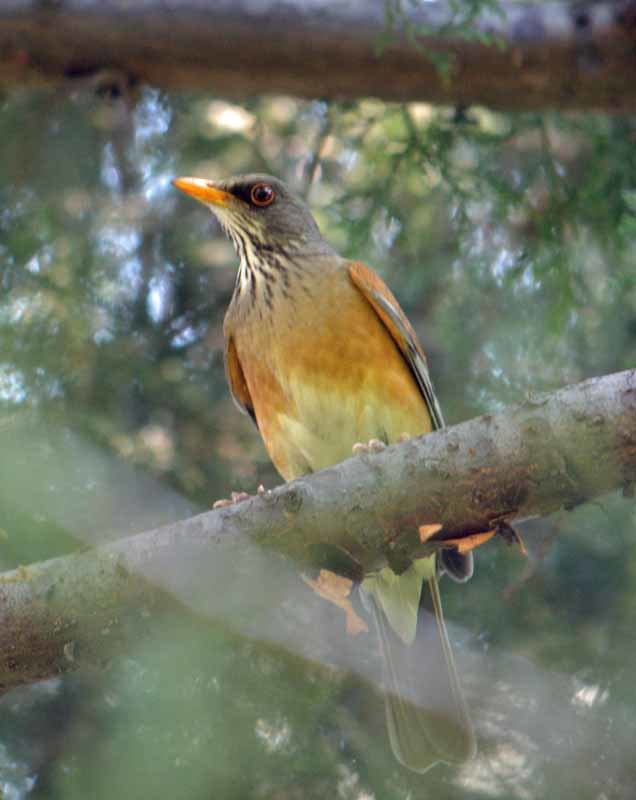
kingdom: Animalia
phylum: Chordata
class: Aves
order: Passeriformes
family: Turdidae
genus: Turdus
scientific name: Turdus rufopalliatus
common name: Rufous-backed robin
